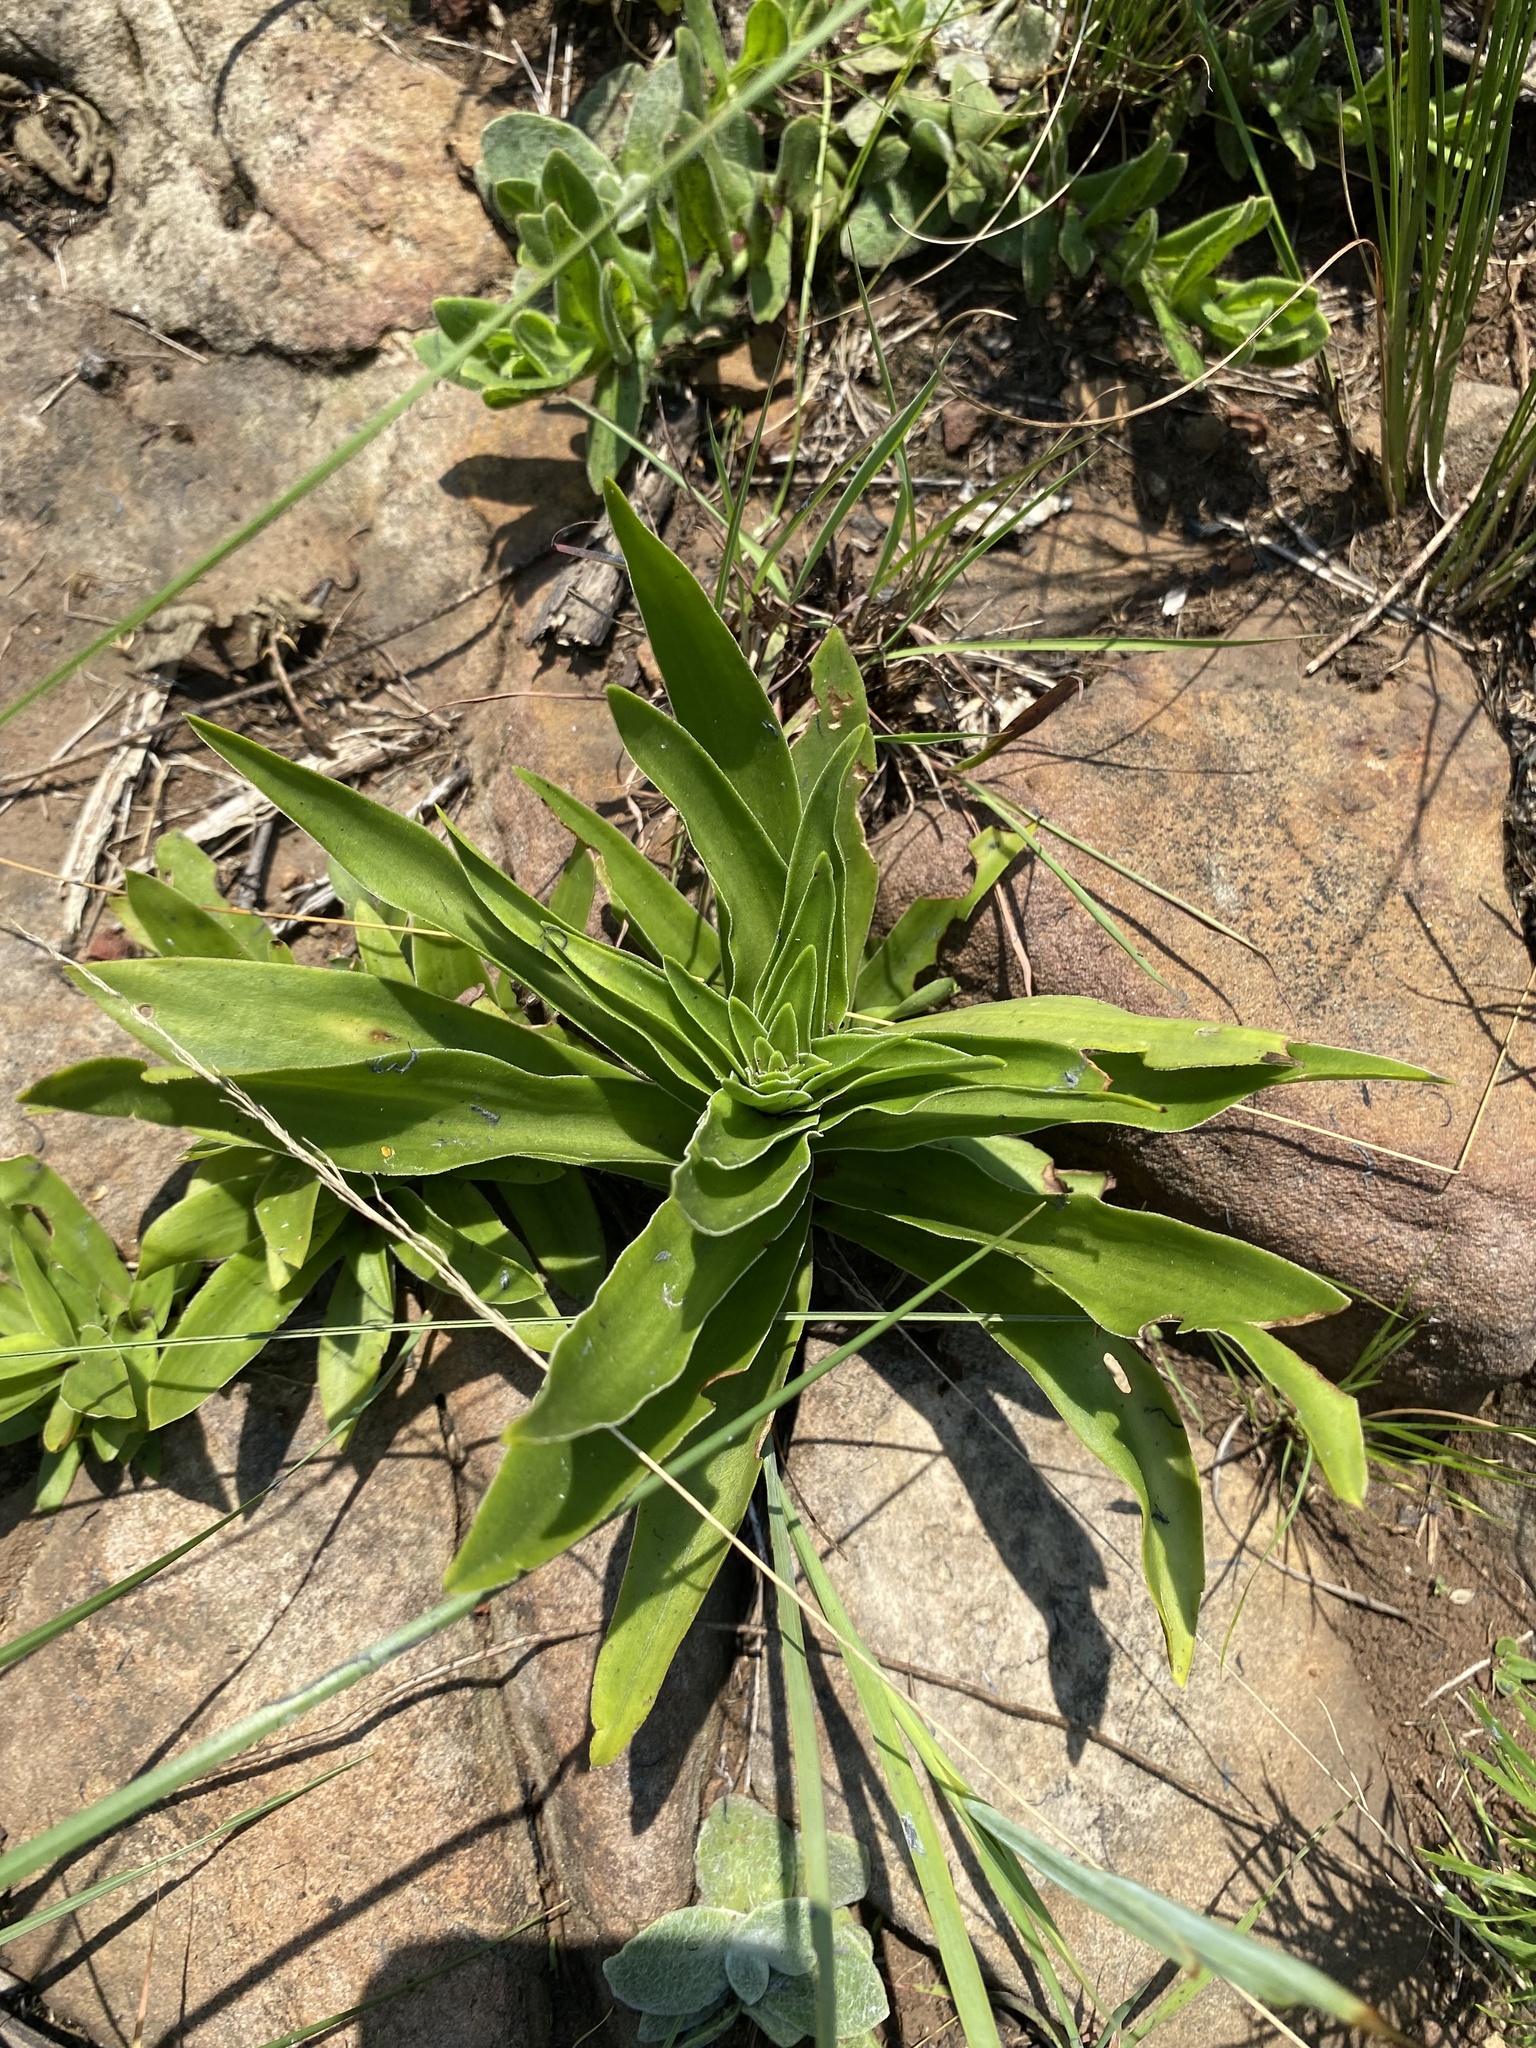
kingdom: Plantae
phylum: Tracheophyta
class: Magnoliopsida
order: Saxifragales
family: Crassulaceae
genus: Crassula
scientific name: Crassula alba
